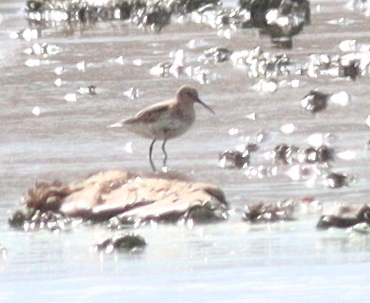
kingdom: Animalia
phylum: Chordata
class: Aves
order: Charadriiformes
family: Scolopacidae
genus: Calidris
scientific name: Calidris alpina
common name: Dunlin
